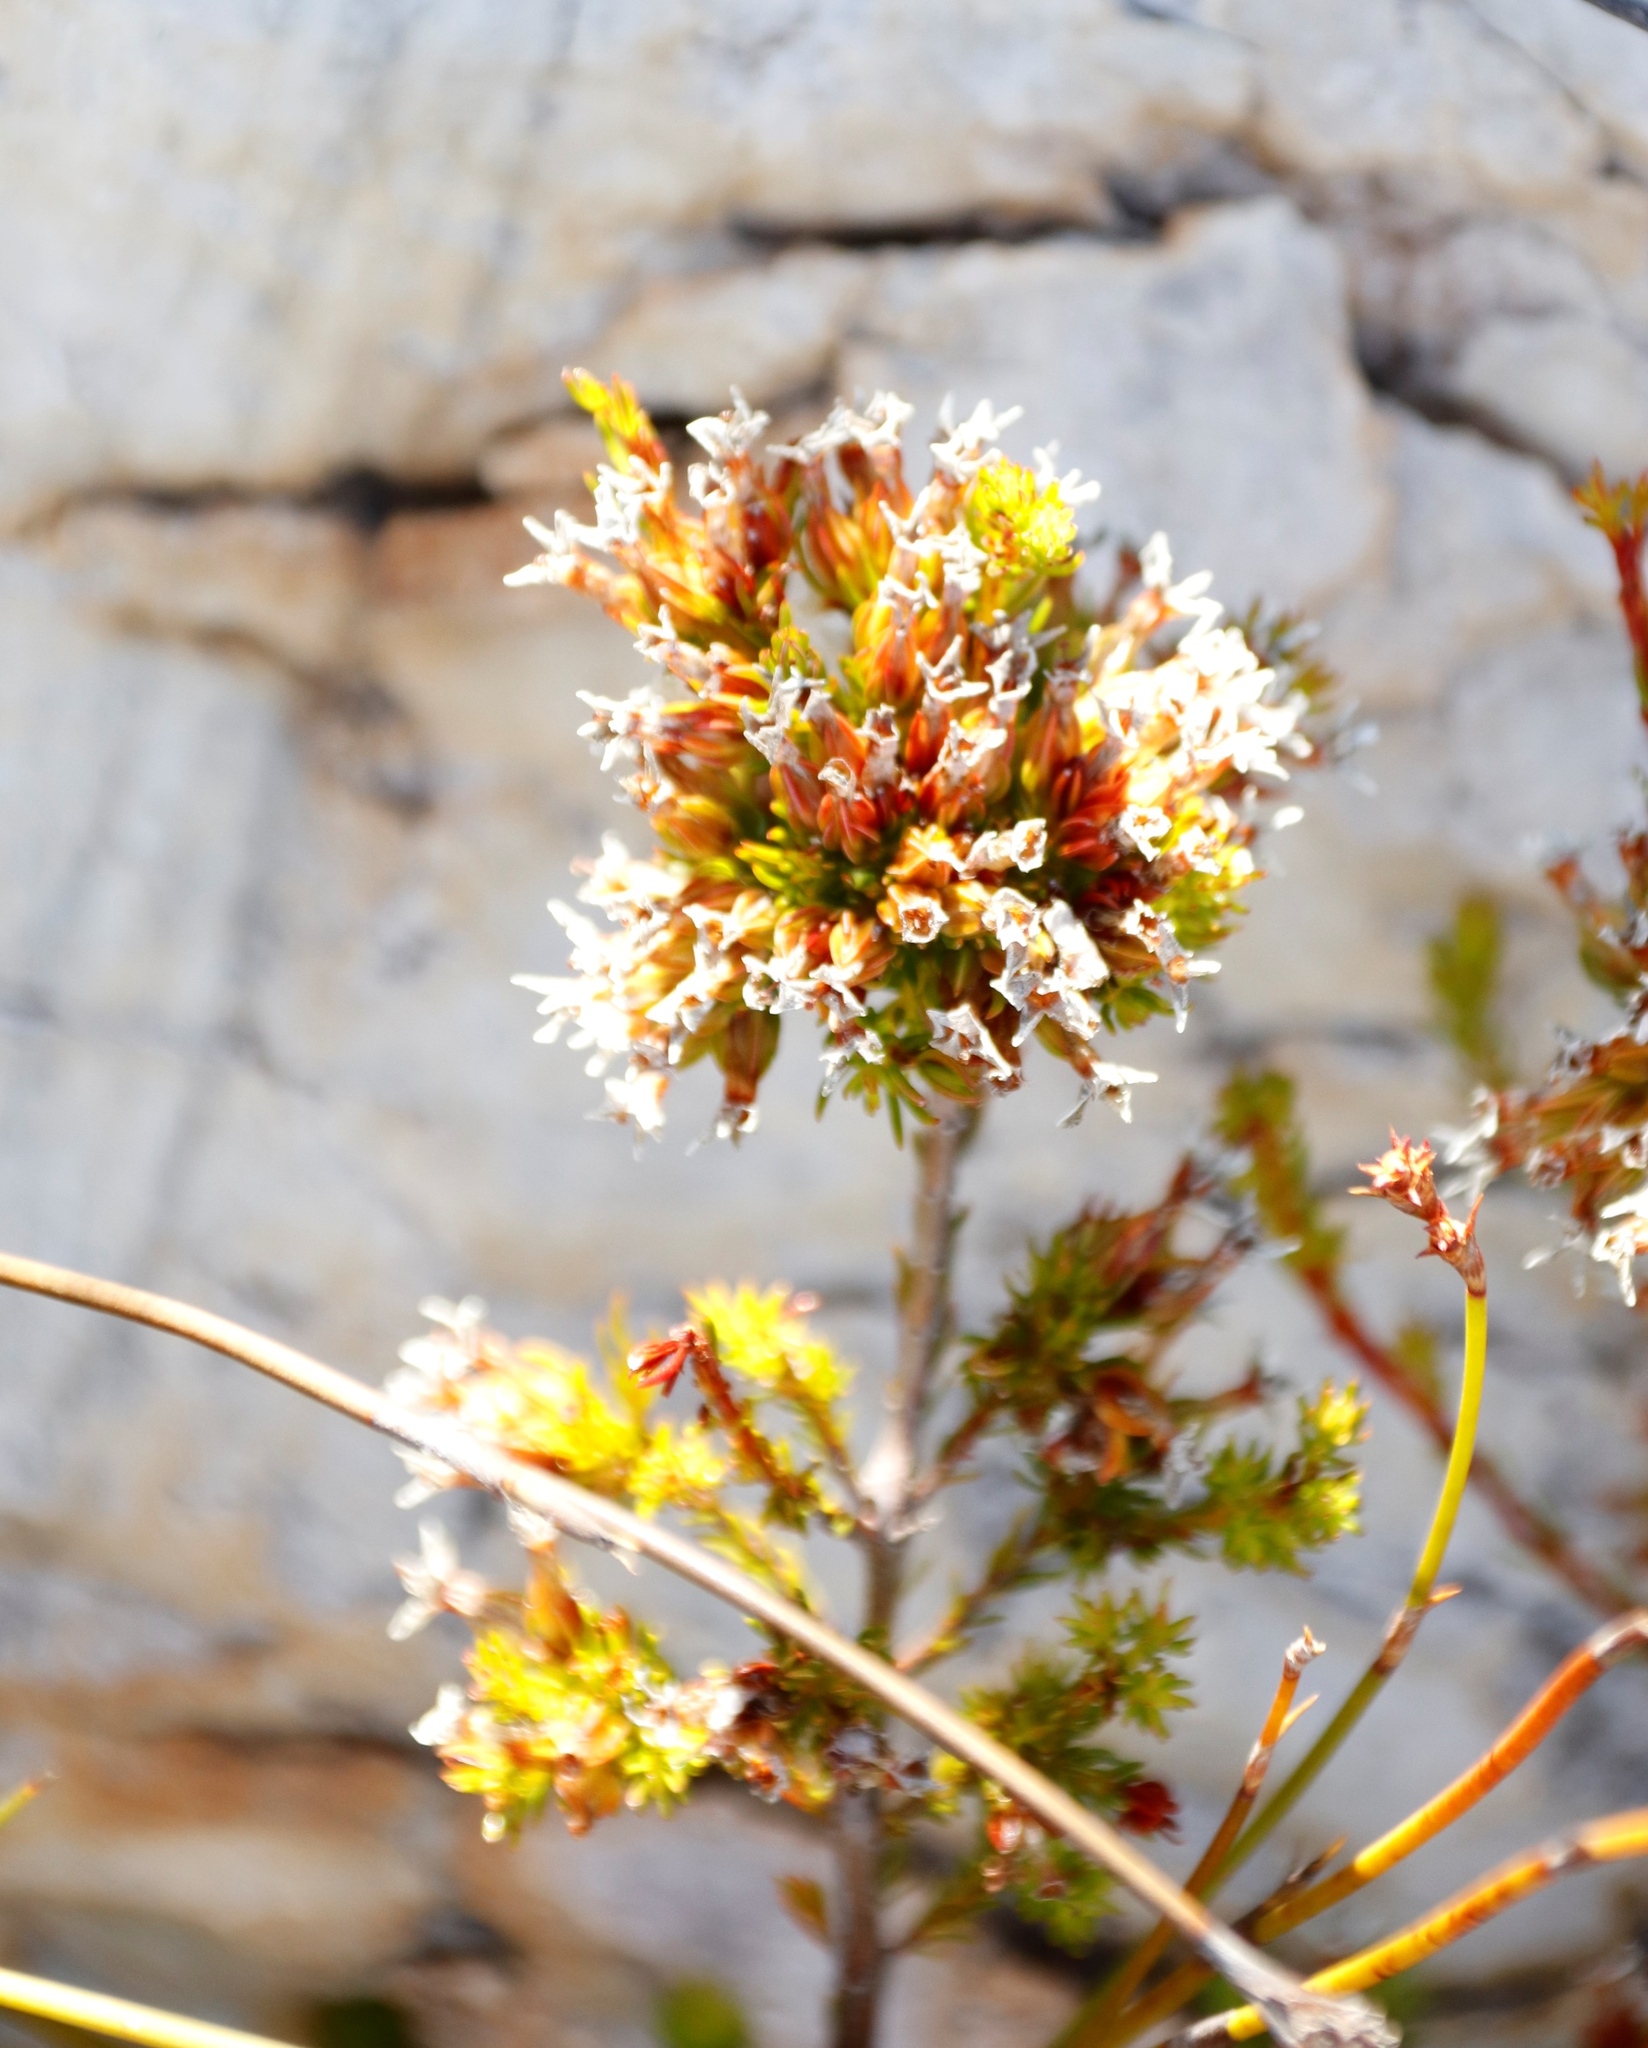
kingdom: Plantae
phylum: Tracheophyta
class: Magnoliopsida
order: Ericales
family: Ericaceae
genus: Erica
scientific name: Erica fastigiata
